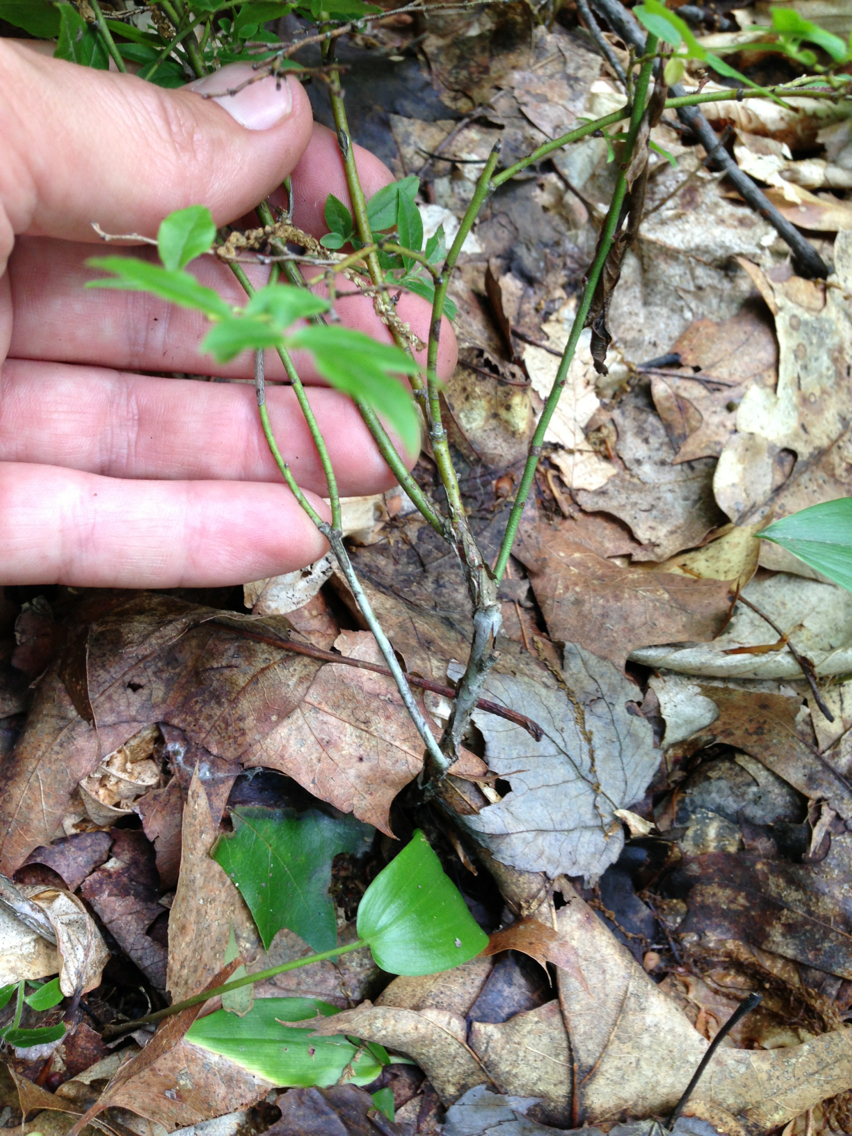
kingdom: Plantae
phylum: Tracheophyta
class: Magnoliopsida
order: Ericales
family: Ericaceae
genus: Vaccinium
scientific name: Vaccinium angustifolium
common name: Early lowbush blueberry
